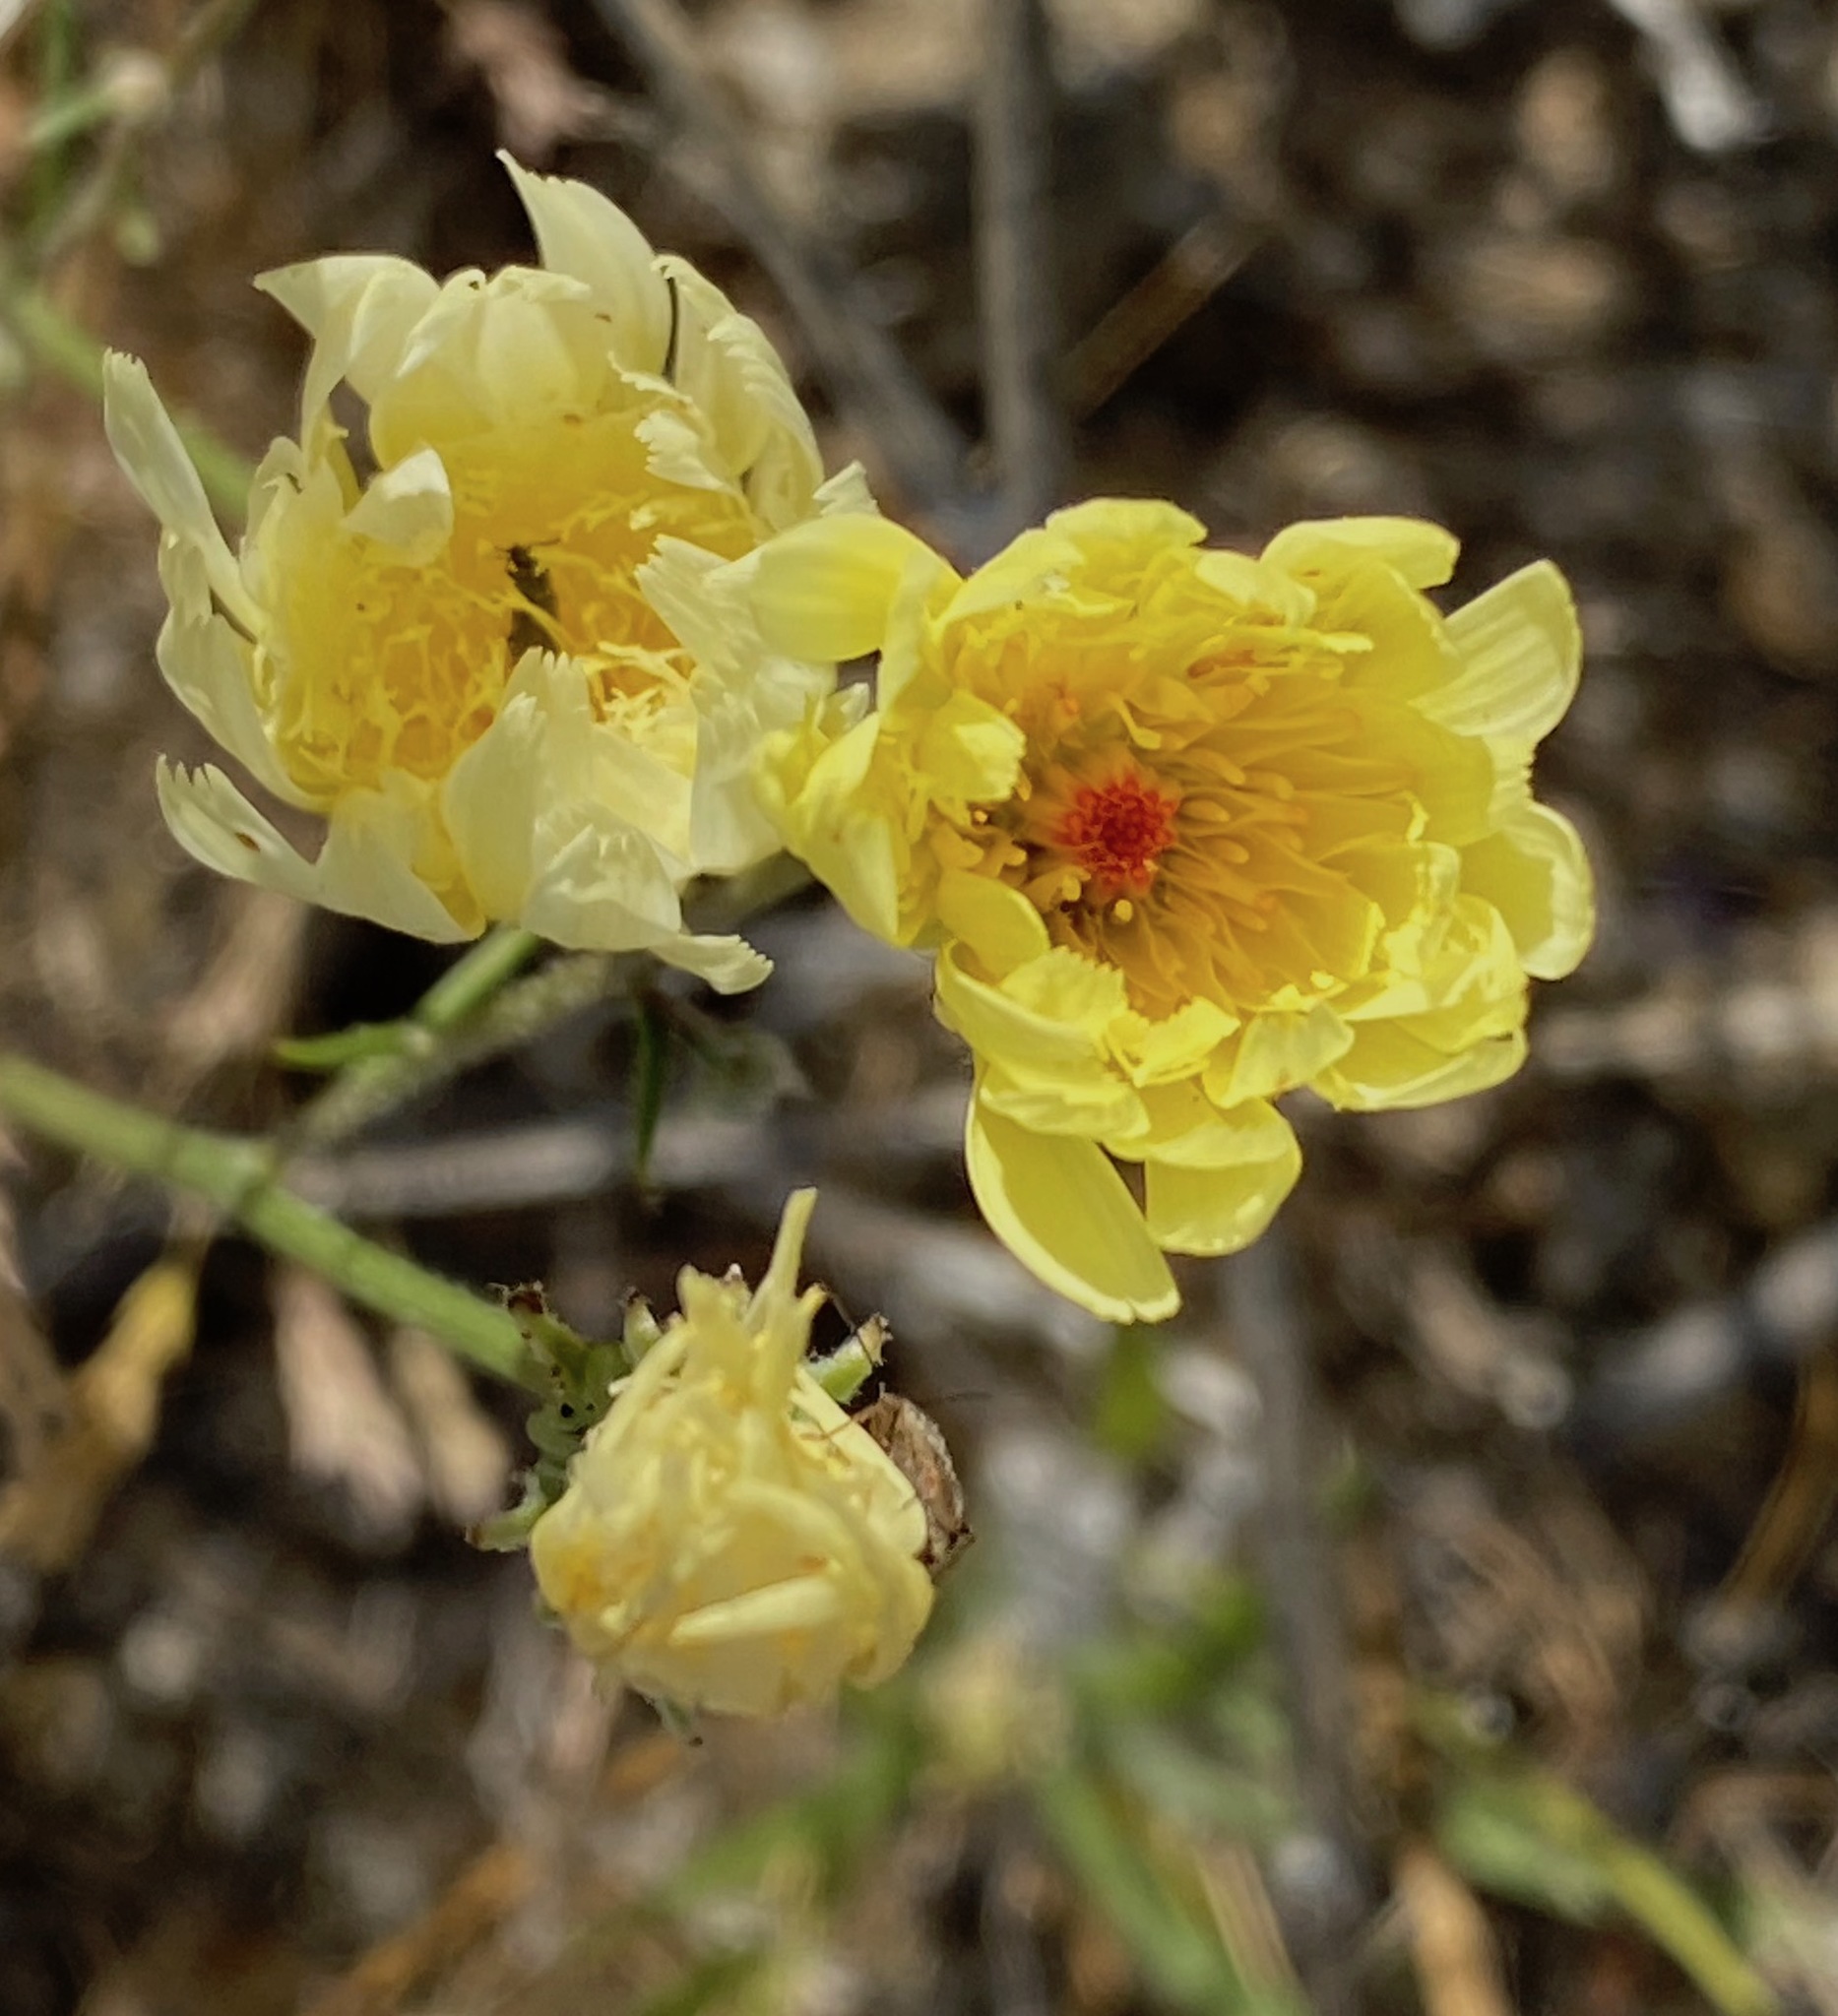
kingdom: Plantae
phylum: Tracheophyta
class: Magnoliopsida
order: Asterales
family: Asteraceae
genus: Malacothrix
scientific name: Malacothrix glabrata
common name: Smooth desert-dandelion
